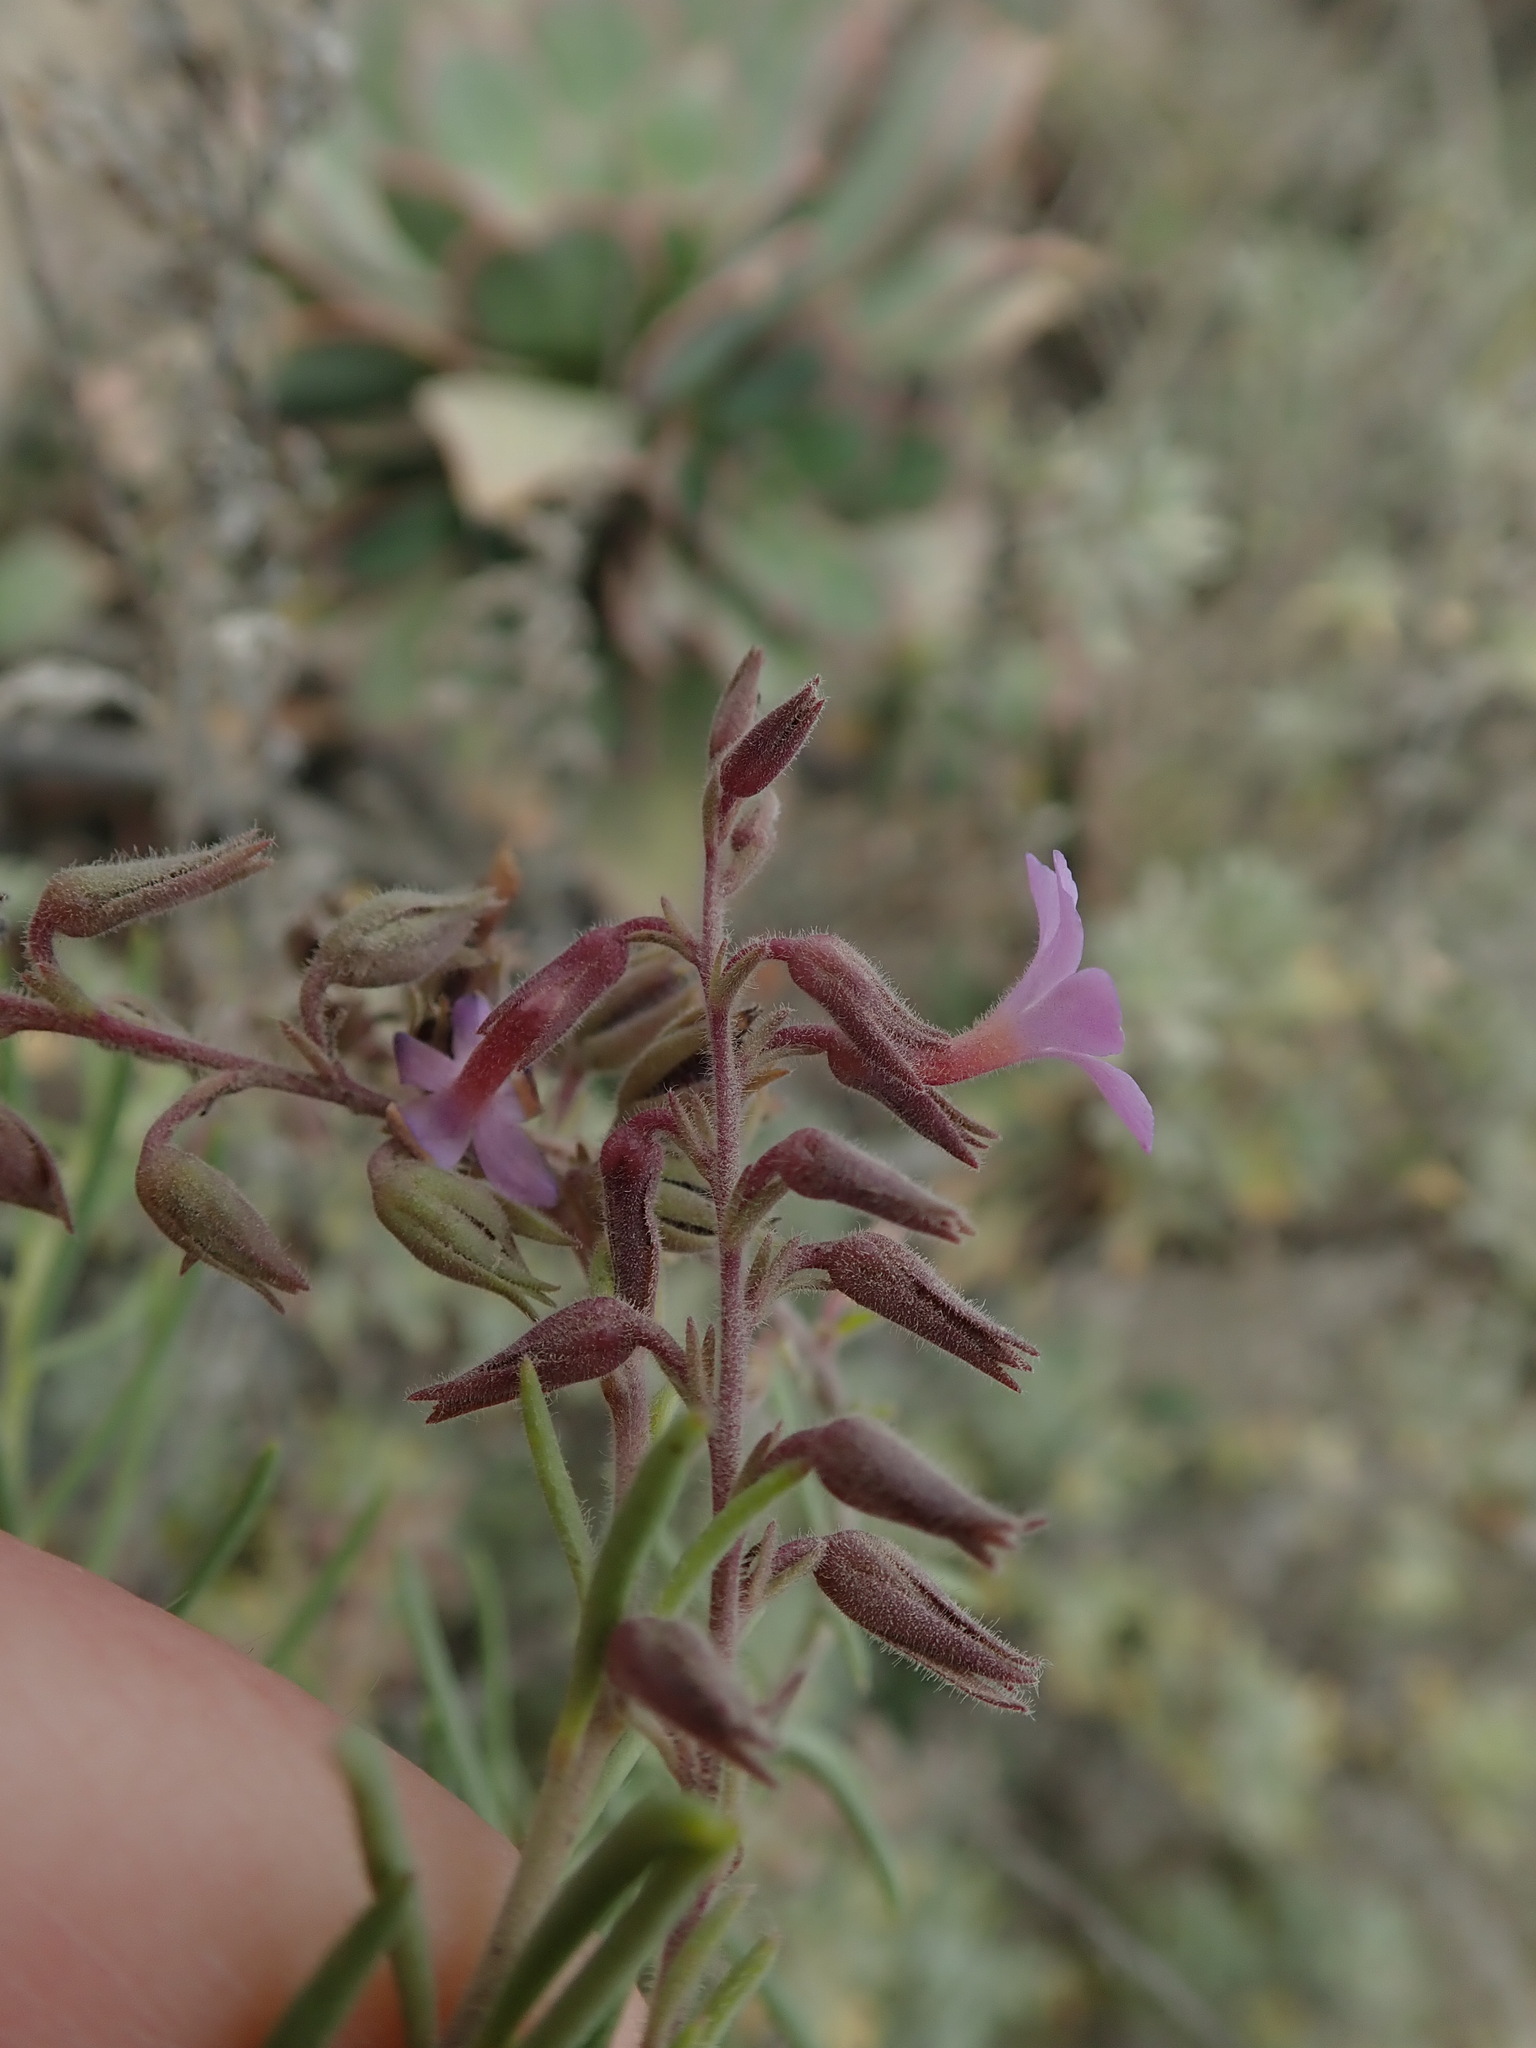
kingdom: Plantae
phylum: Tracheophyta
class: Magnoliopsida
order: Lamiales
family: Plantaginaceae
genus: Campylanthus
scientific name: Campylanthus salsoloides
